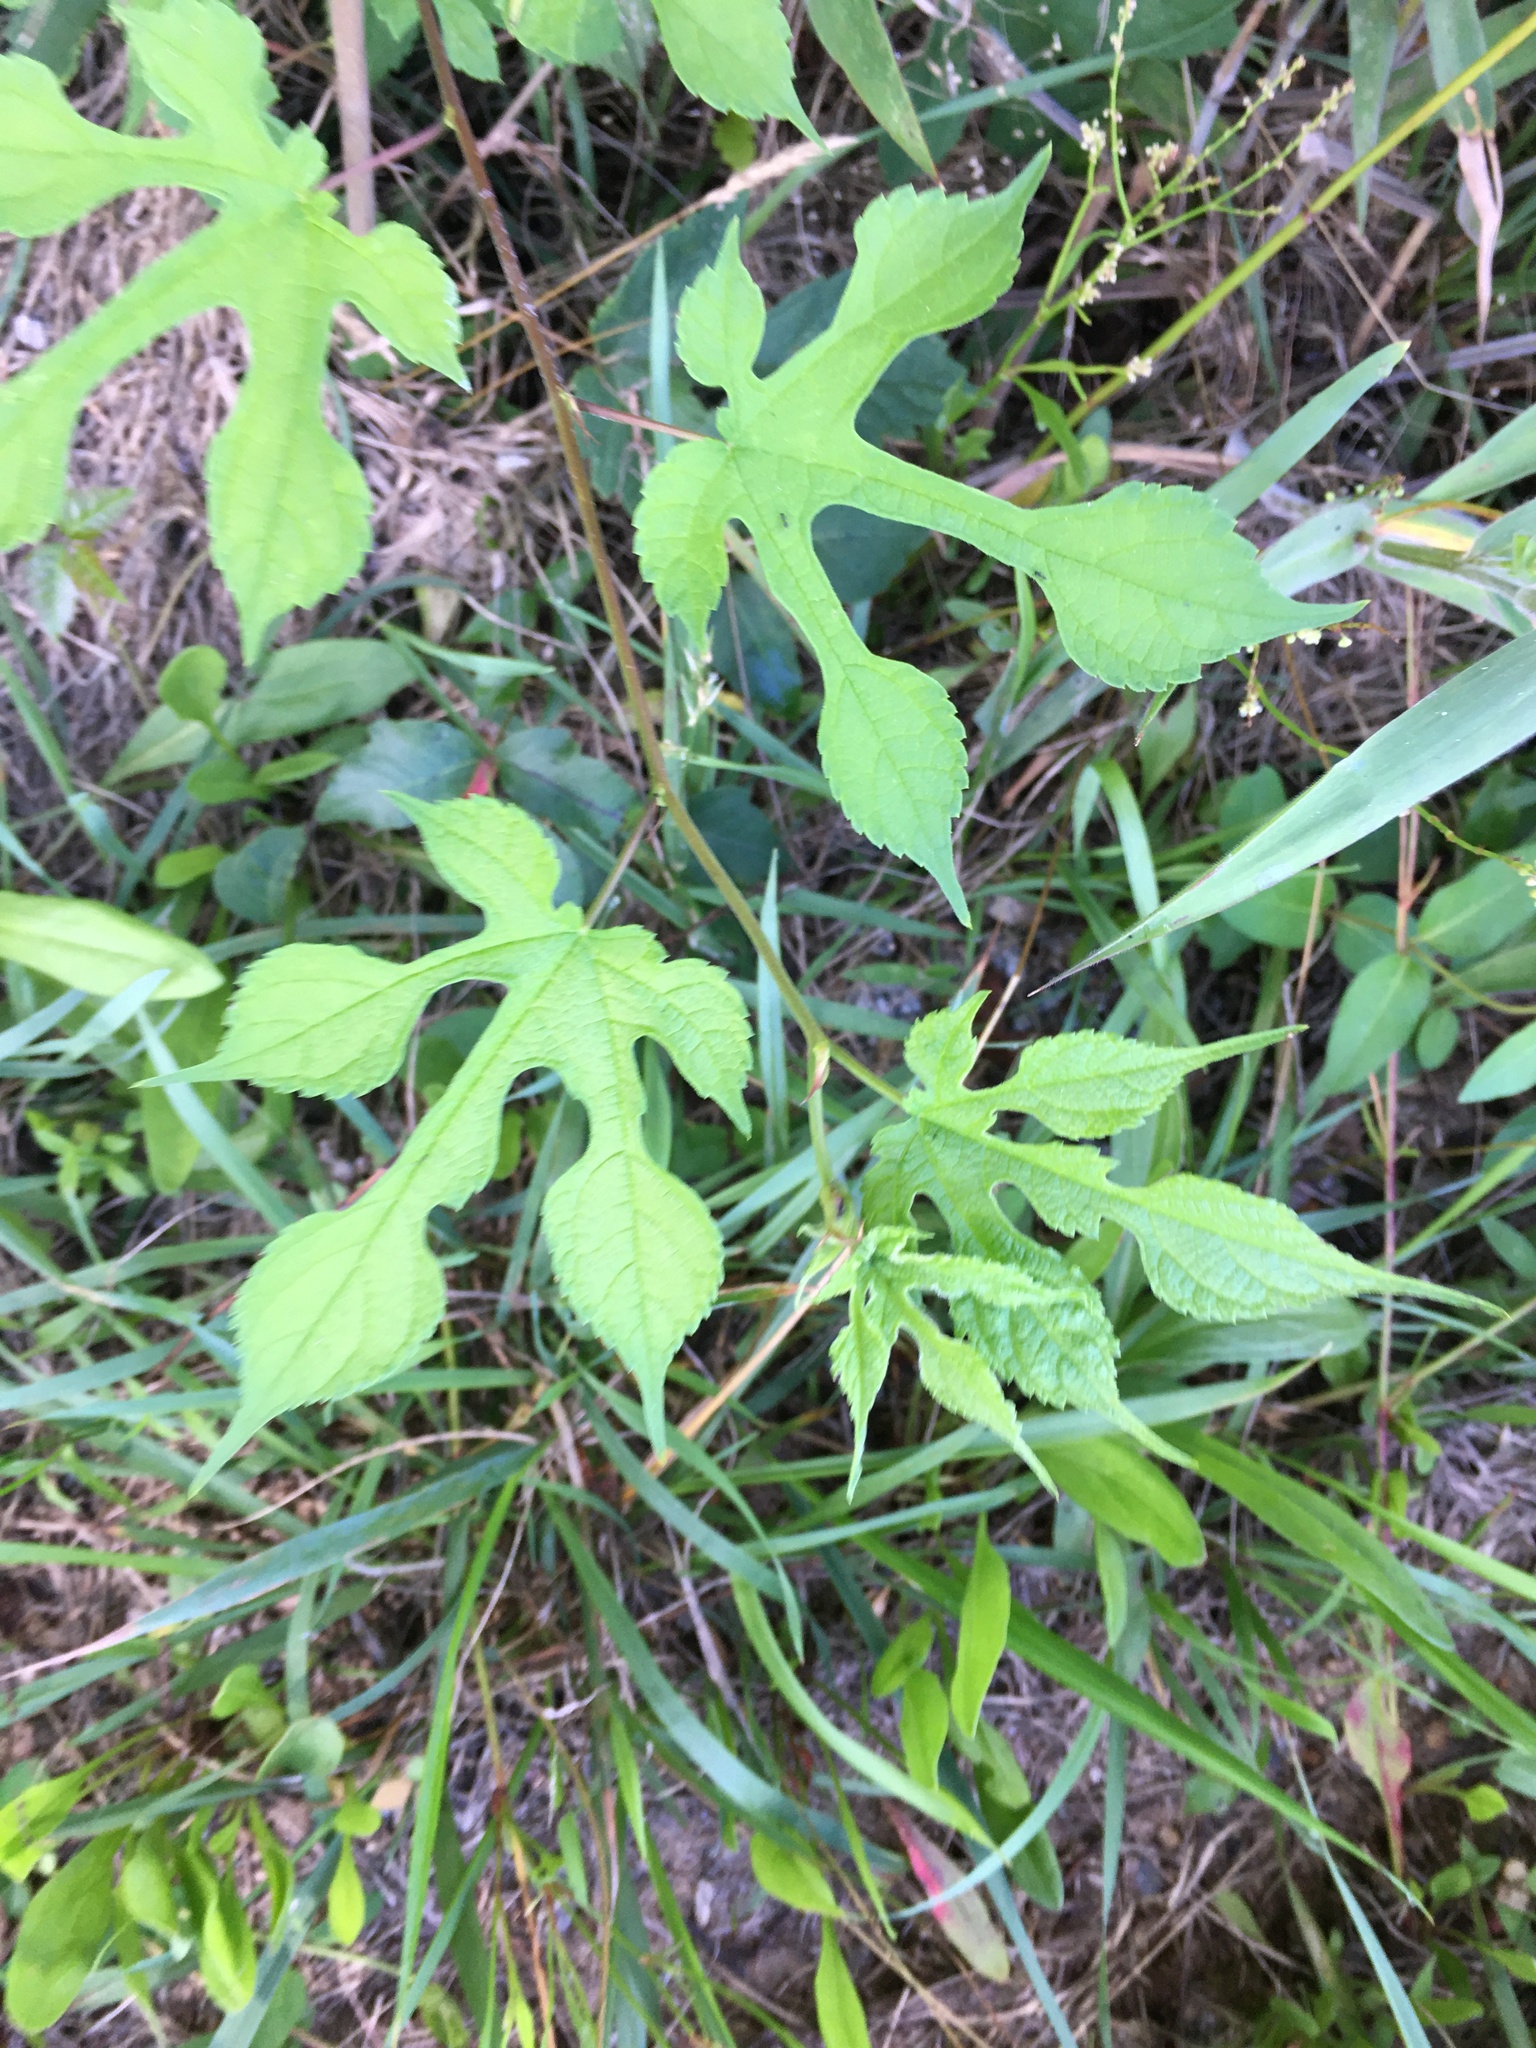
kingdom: Plantae
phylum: Tracheophyta
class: Magnoliopsida
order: Rosales
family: Moraceae
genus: Broussonetia
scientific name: Broussonetia papyrifera
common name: Paper mulberry
